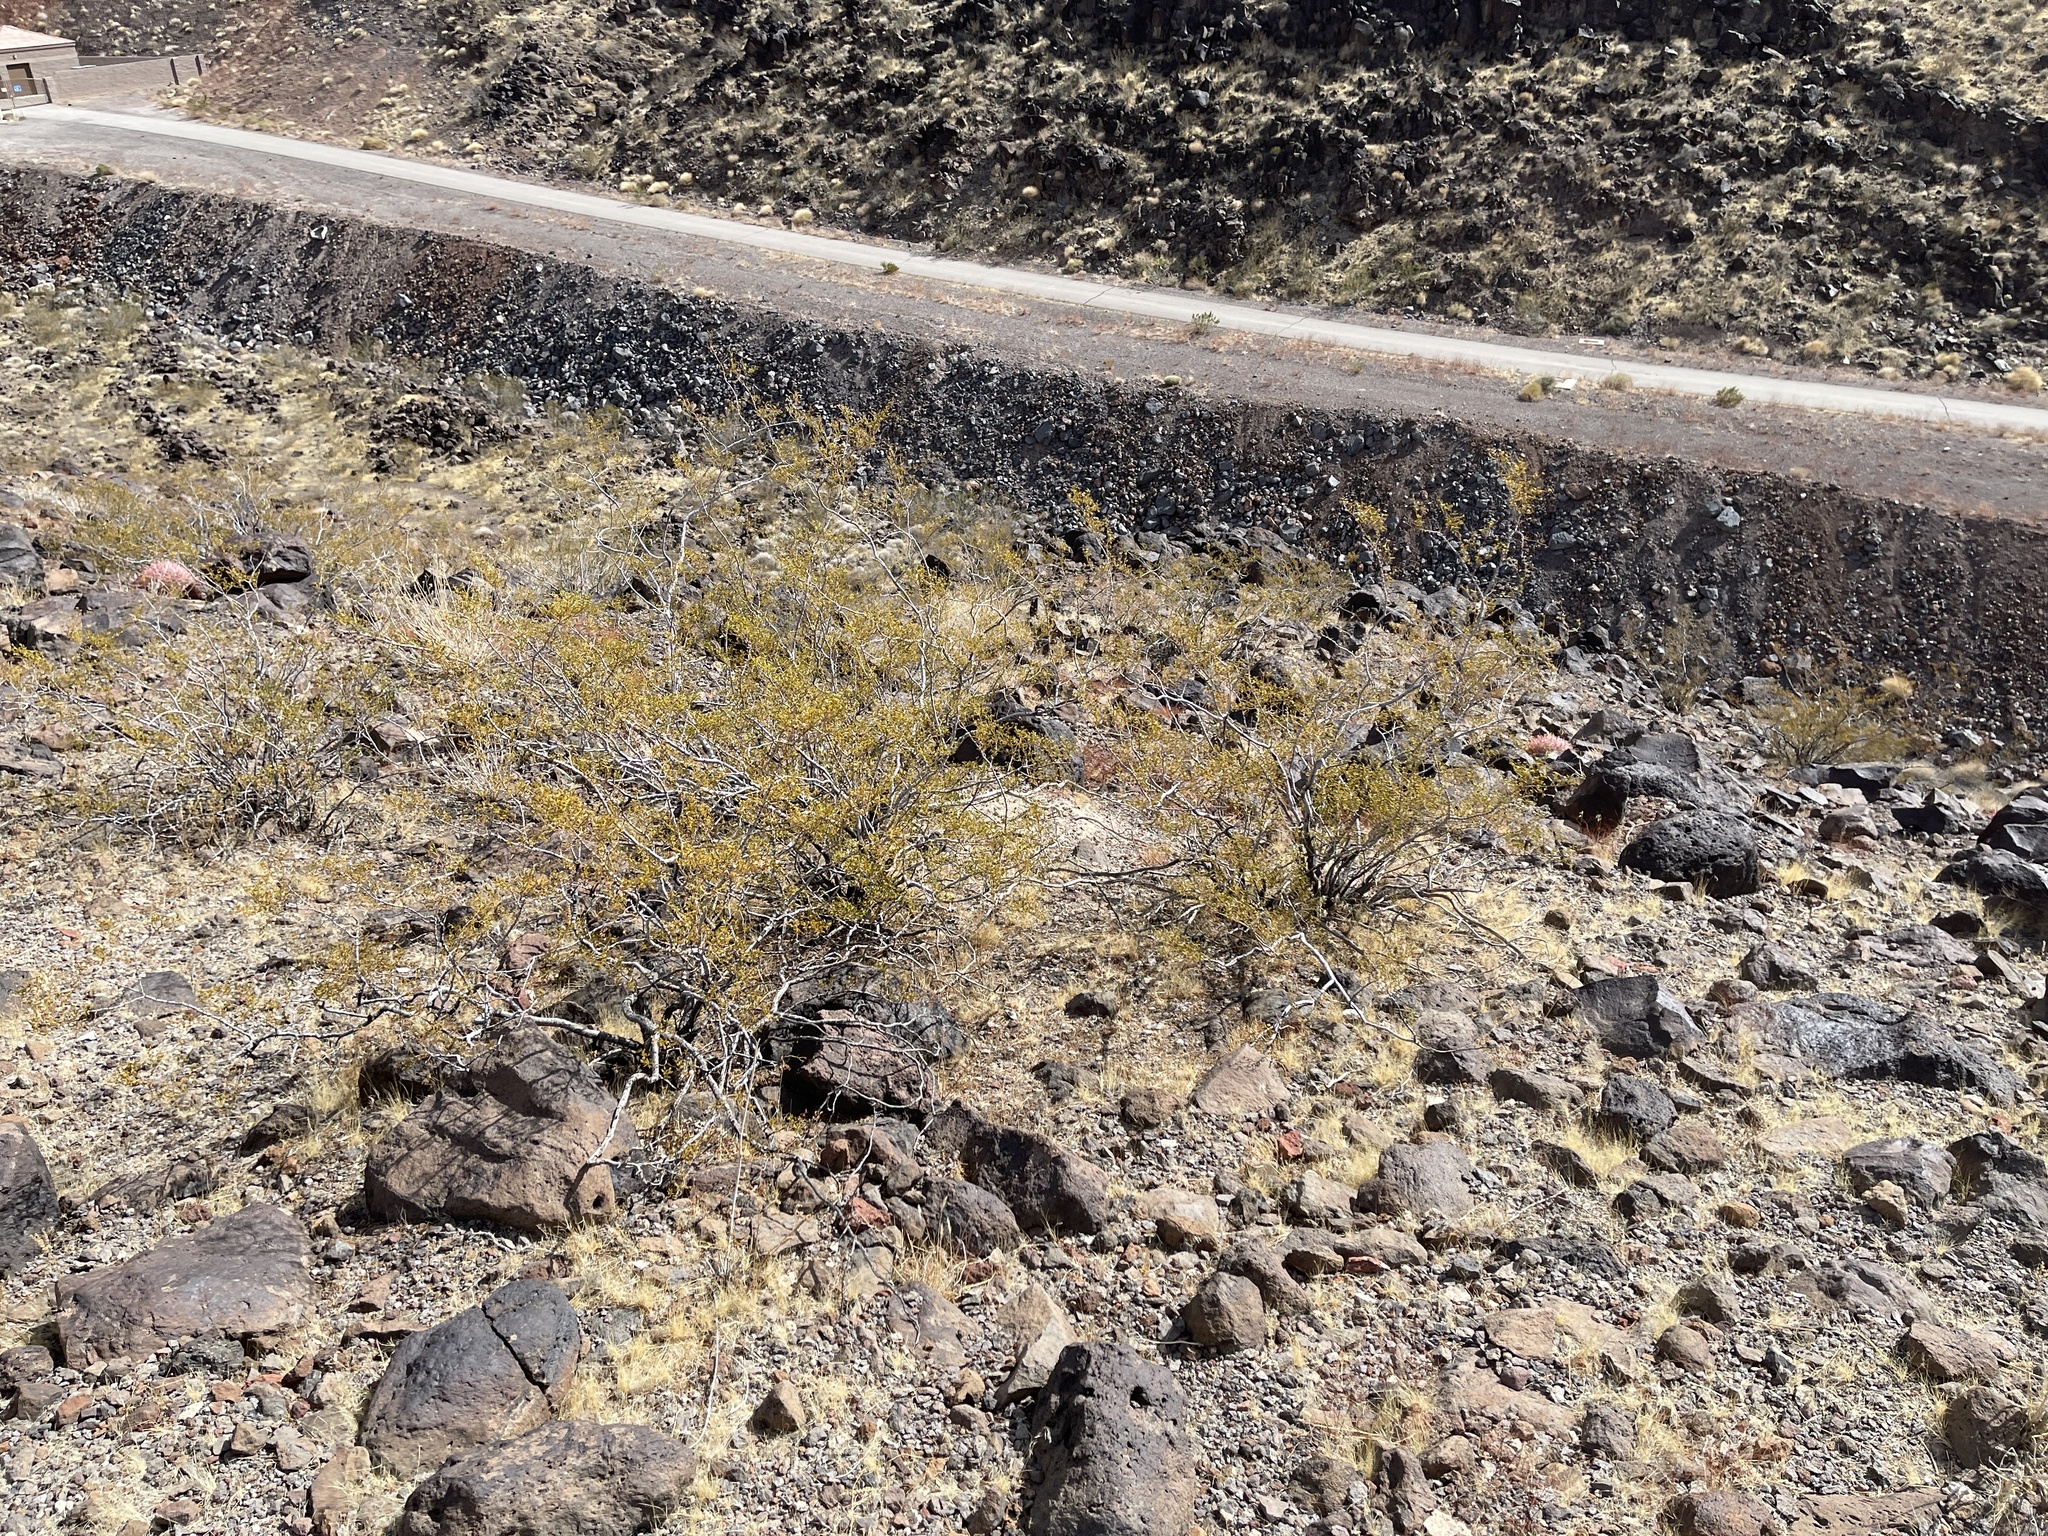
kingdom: Plantae
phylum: Tracheophyta
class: Magnoliopsida
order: Zygophyllales
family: Zygophyllaceae
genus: Larrea
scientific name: Larrea tridentata
